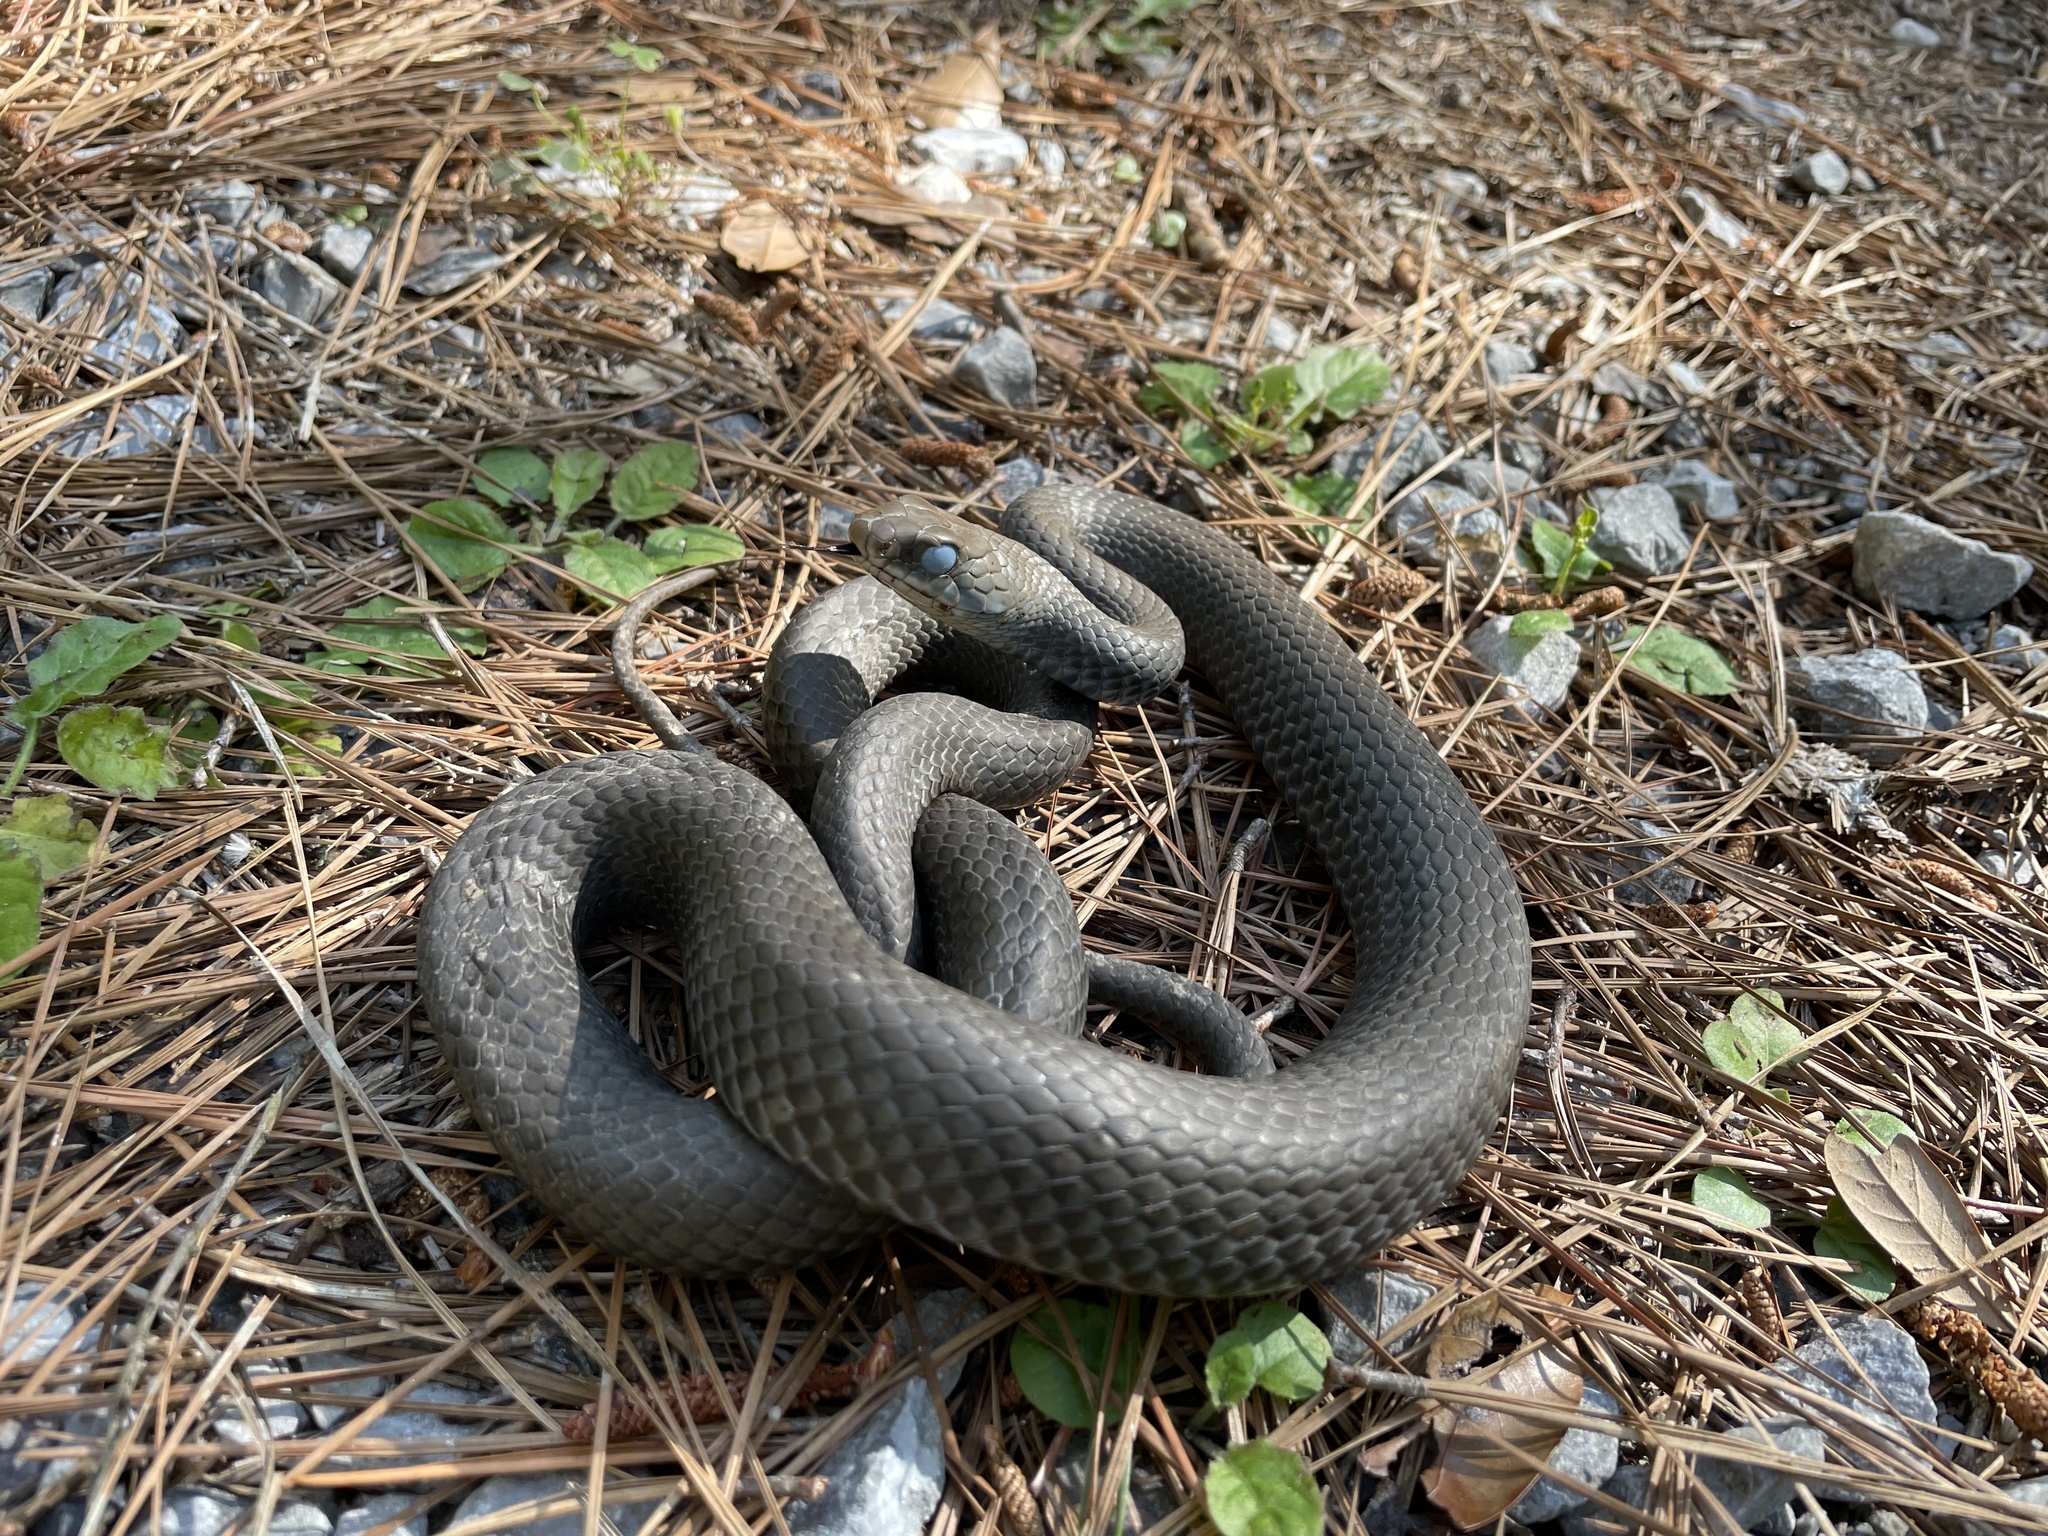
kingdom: Animalia
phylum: Chordata
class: Squamata
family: Colubridae
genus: Coluber
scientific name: Coluber constrictor
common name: Eastern racer
